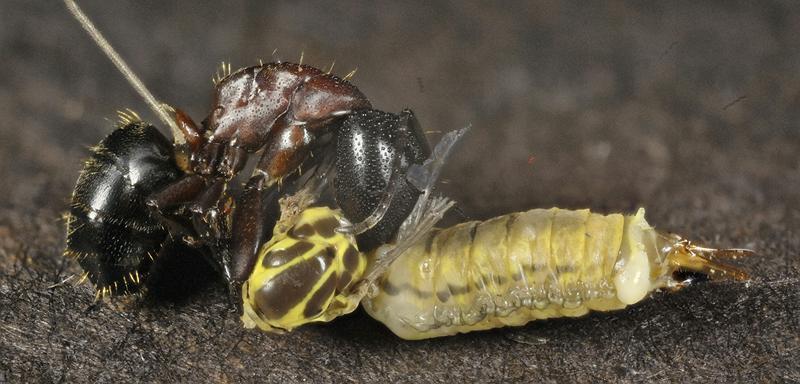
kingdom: Animalia
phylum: Arthropoda
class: Insecta
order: Hymenoptera
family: Formicidae
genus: Camponotus
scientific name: Camponotus novaeboracensis
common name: New york carpenter ant
